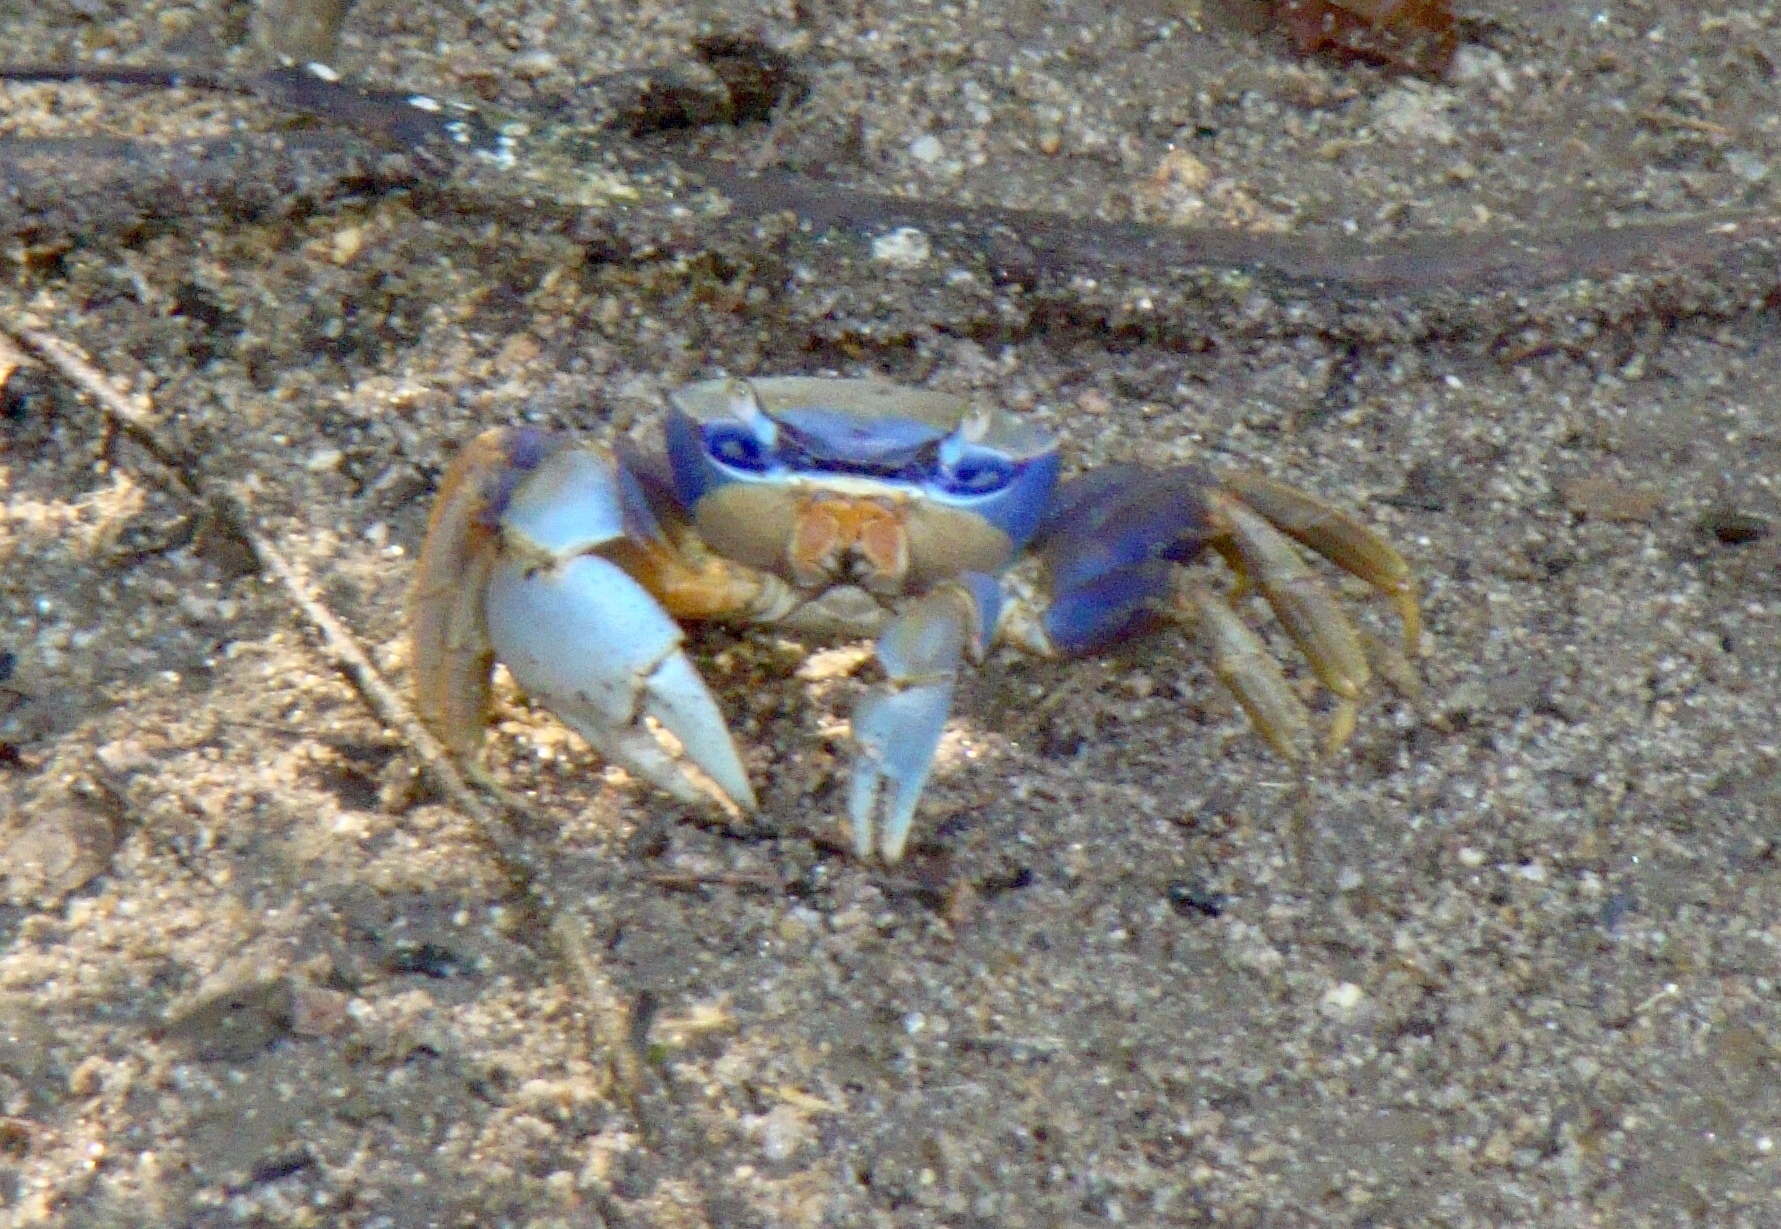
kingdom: Animalia
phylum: Arthropoda
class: Malacostraca
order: Decapoda
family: Gecarcinidae
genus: Cardisoma
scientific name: Cardisoma guanhumi
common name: Great land crab
